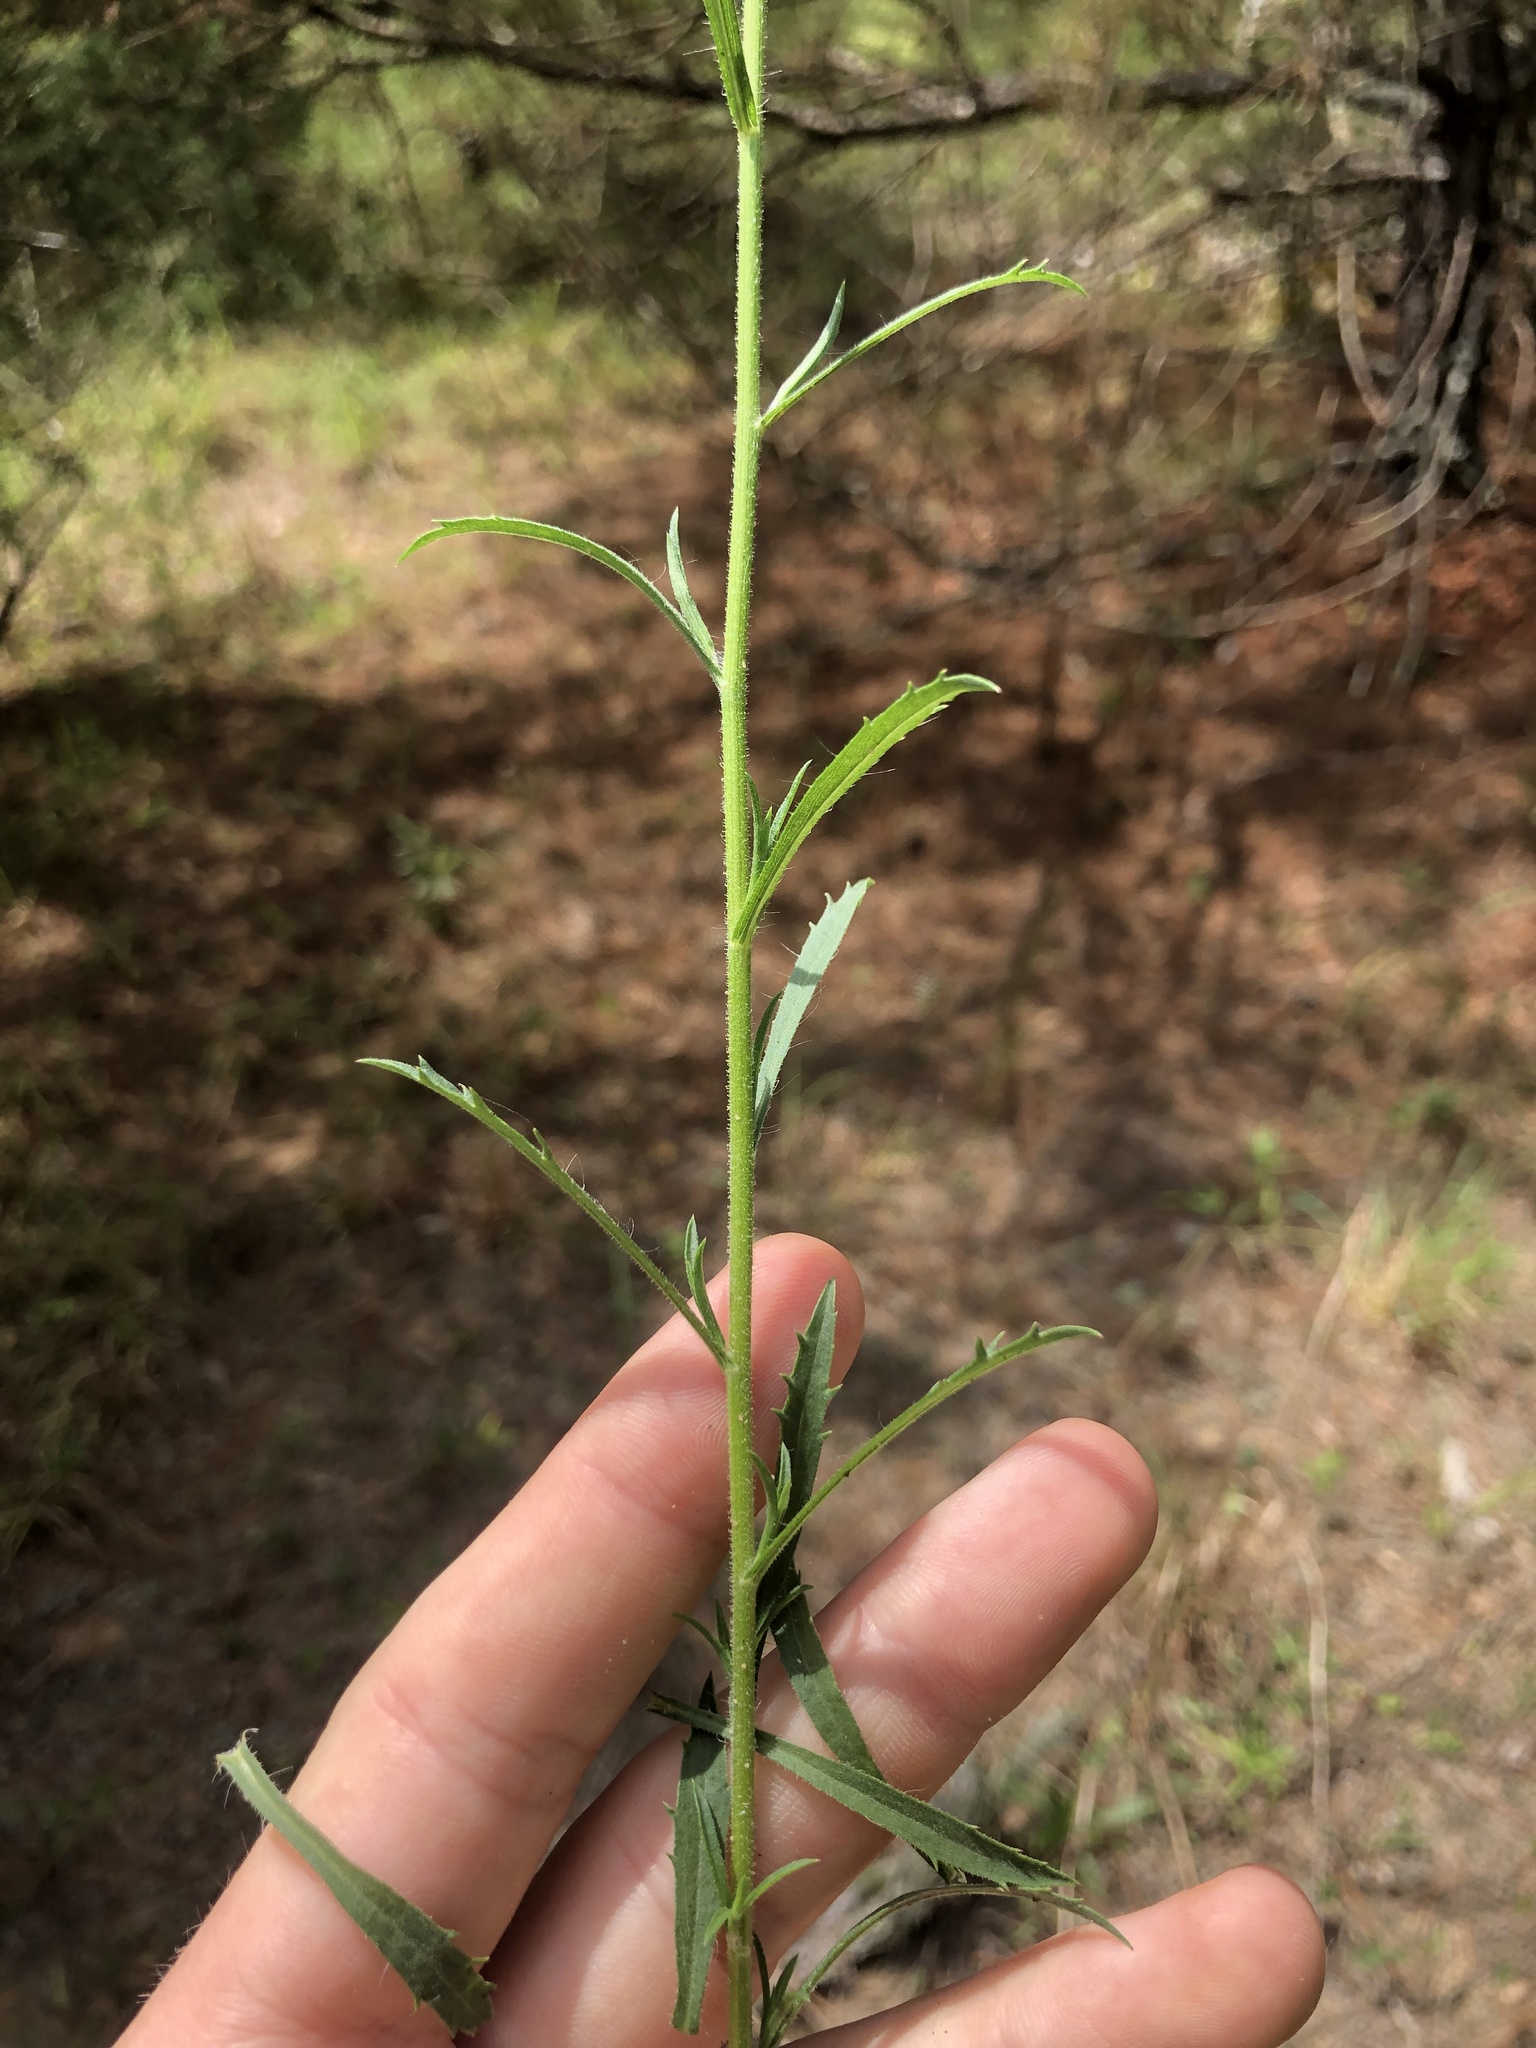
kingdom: Plantae
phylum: Tracheophyta
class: Magnoliopsida
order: Asterales
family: Asteraceae
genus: Croptilon
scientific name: Croptilon divaricatum
